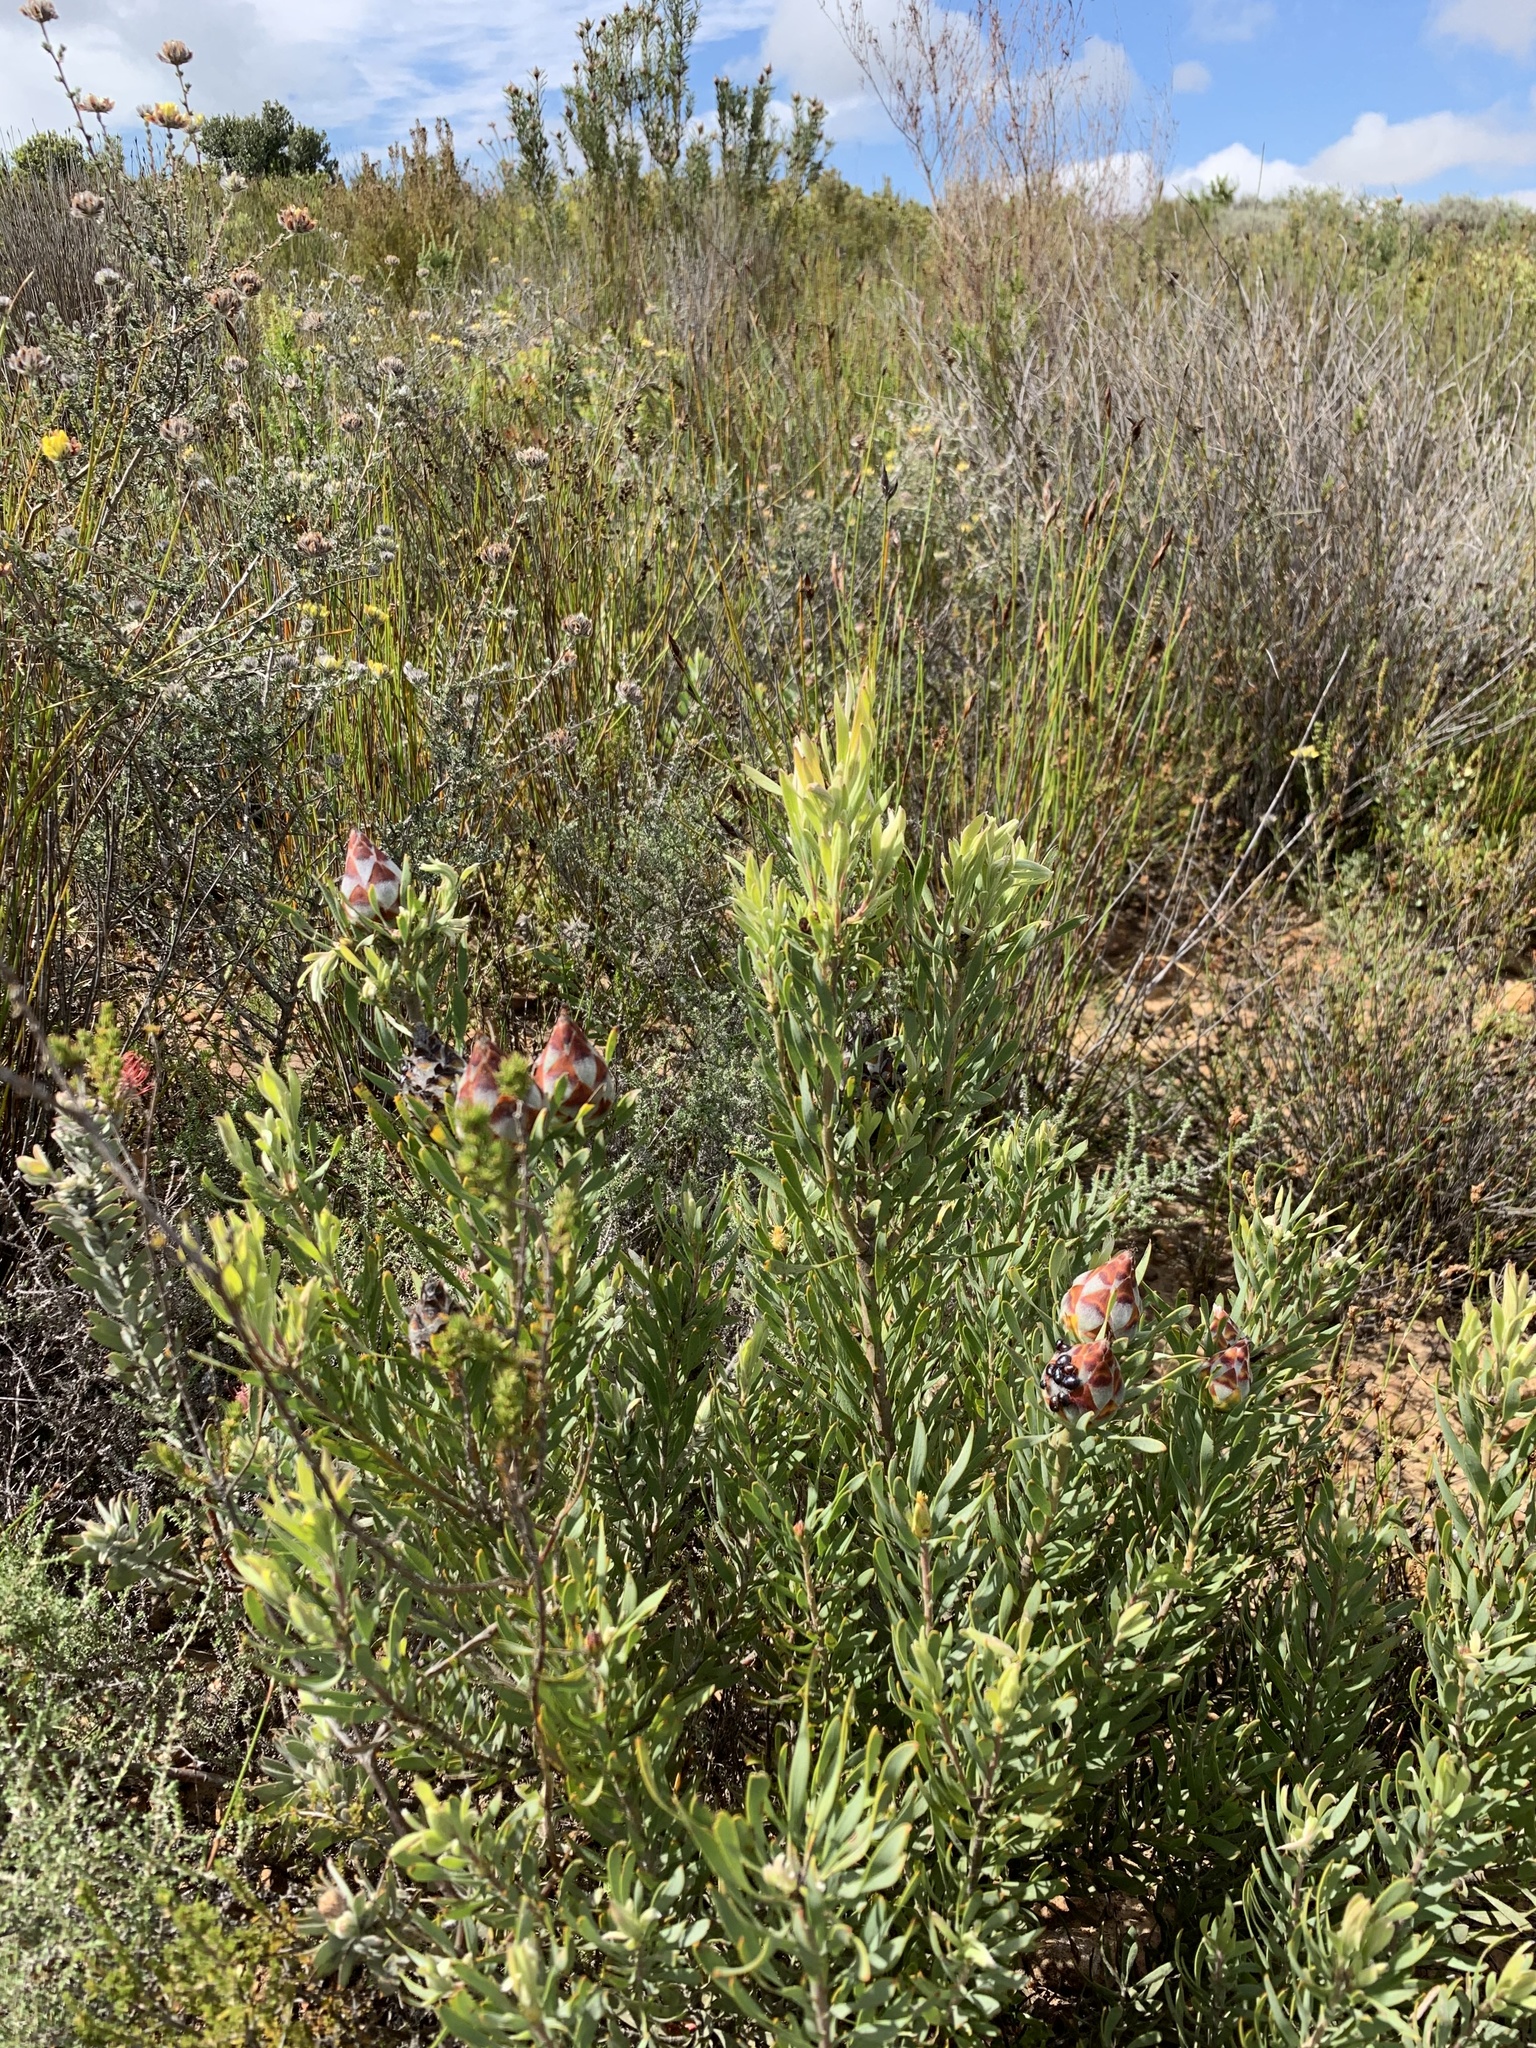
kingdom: Plantae
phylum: Tracheophyta
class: Magnoliopsida
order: Proteales
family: Proteaceae
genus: Leucadendron
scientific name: Leucadendron rubrum
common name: Spinning top
